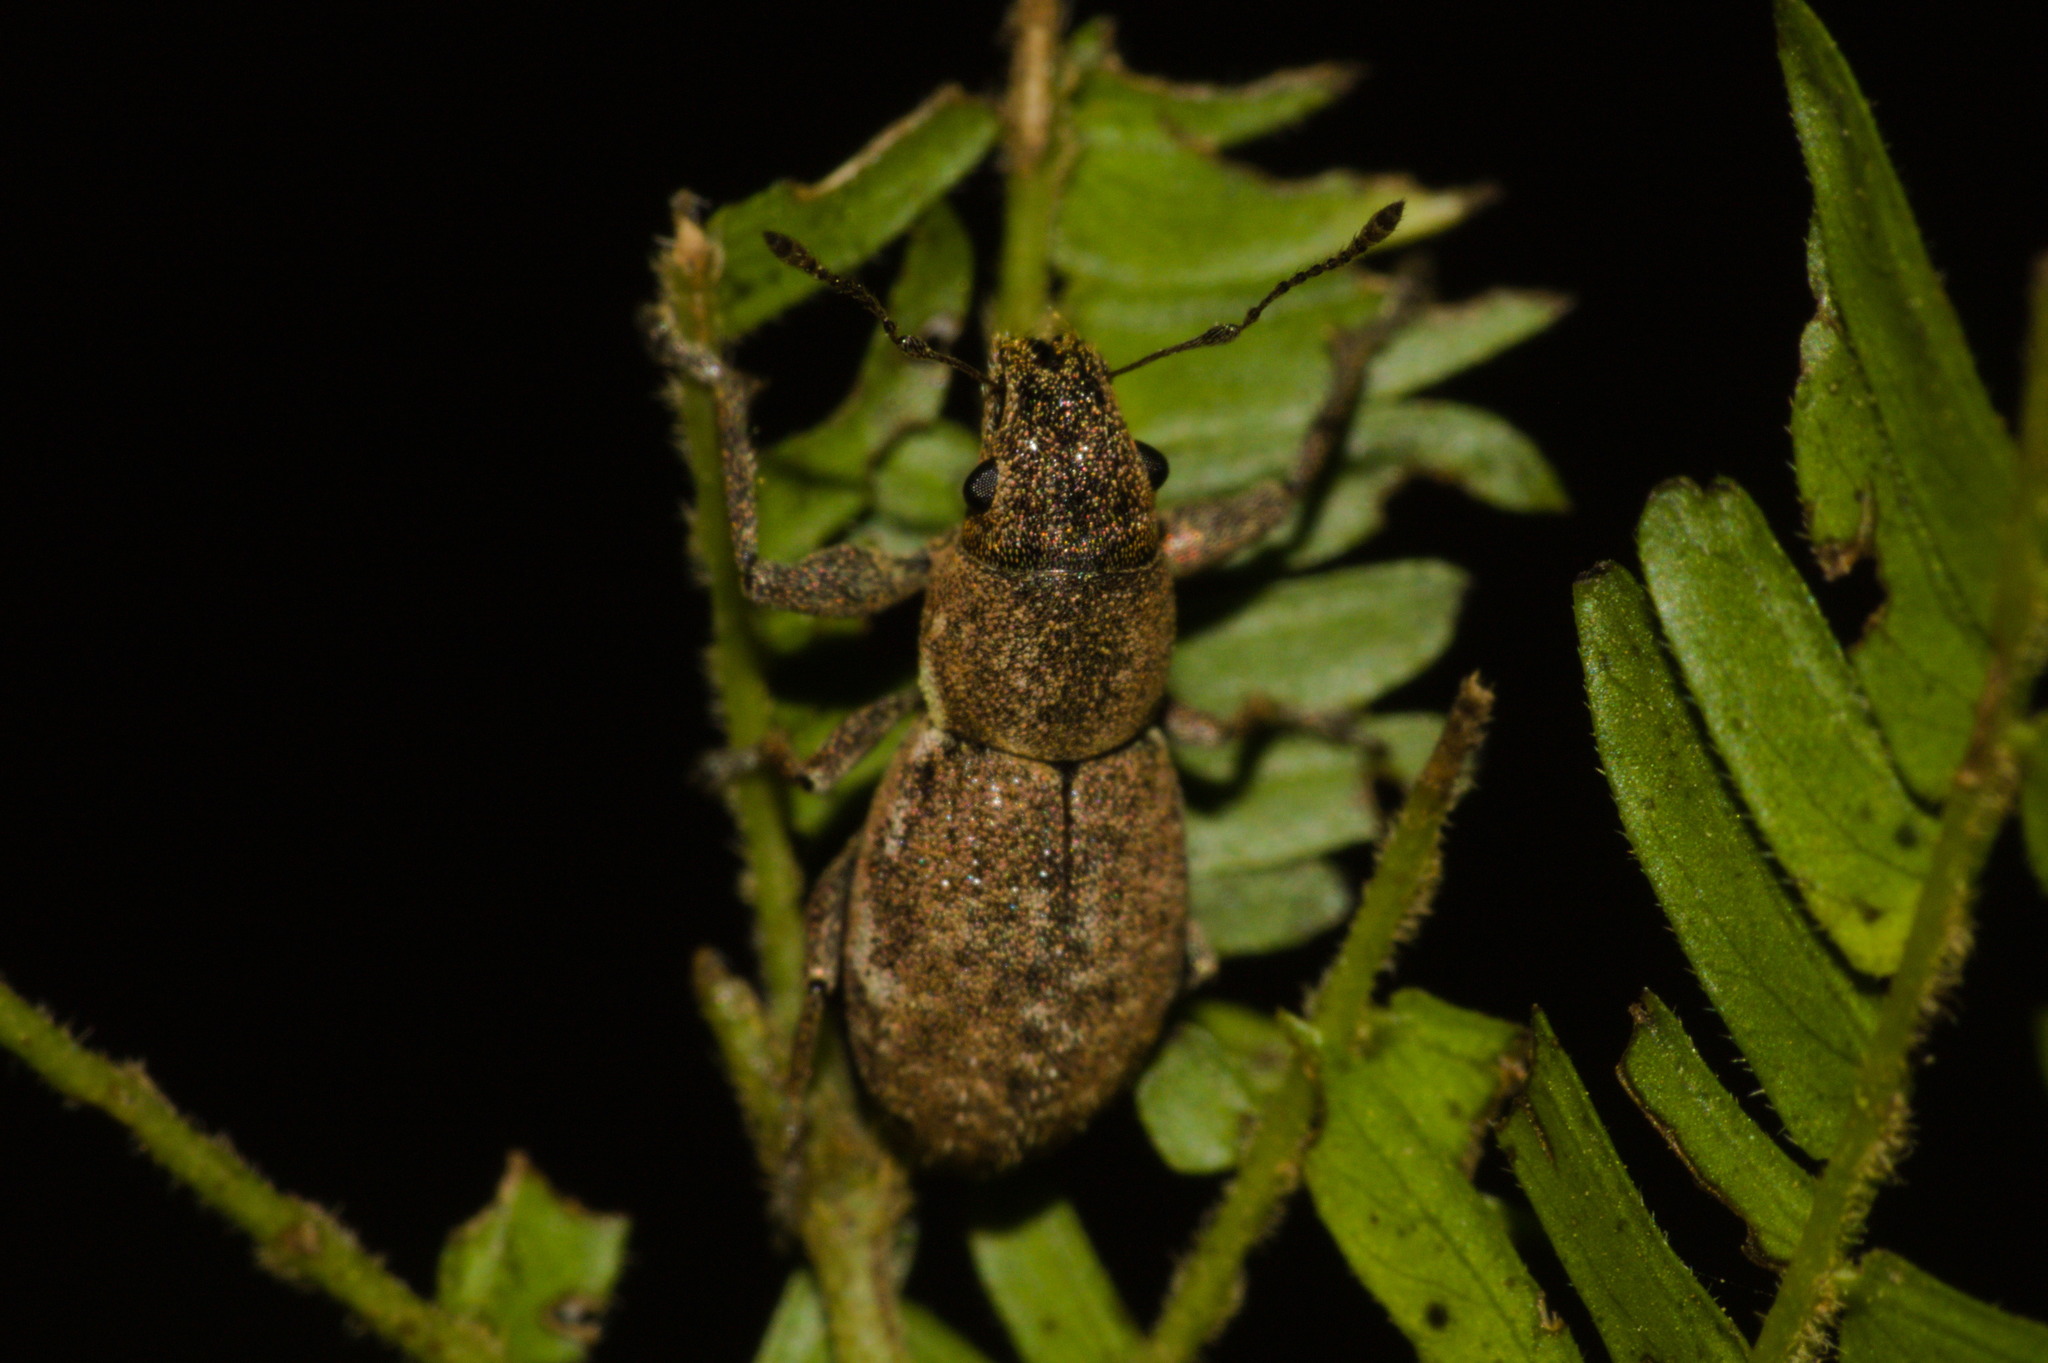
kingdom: Animalia
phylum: Arthropoda
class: Insecta
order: Coleoptera
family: Curculionidae
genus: Naupactus
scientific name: Naupactus cervinus
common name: Fuller rose beetle
